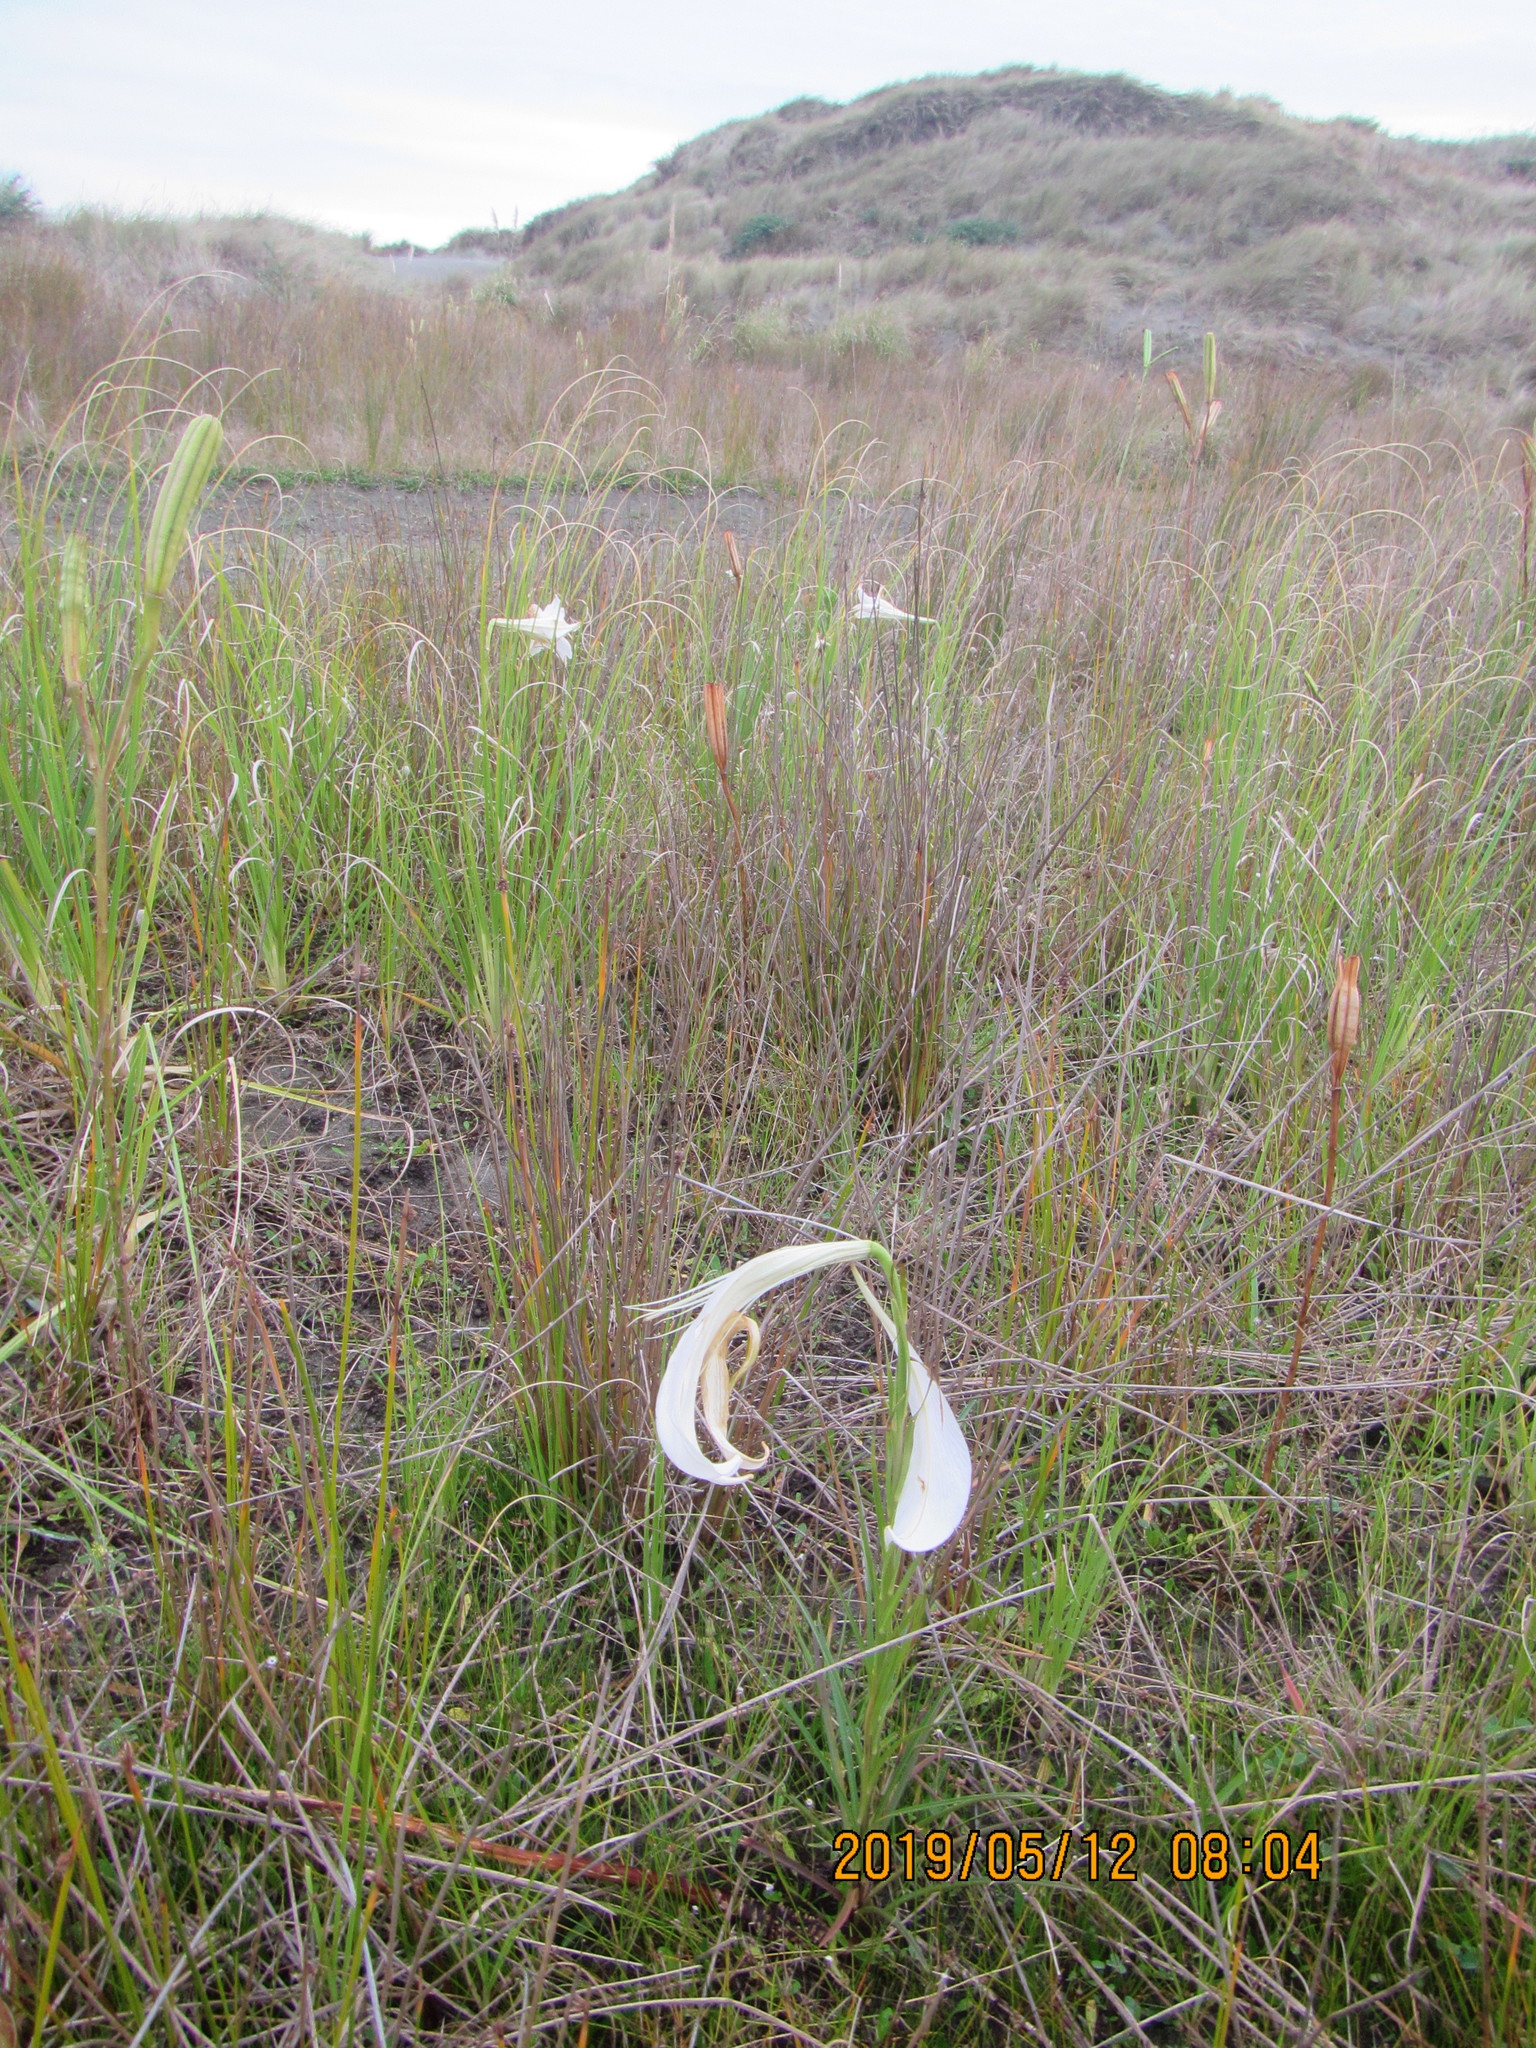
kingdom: Plantae
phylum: Tracheophyta
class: Liliopsida
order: Liliales
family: Liliaceae
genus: Lilium
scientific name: Lilium formosanum
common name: Formosa lily
